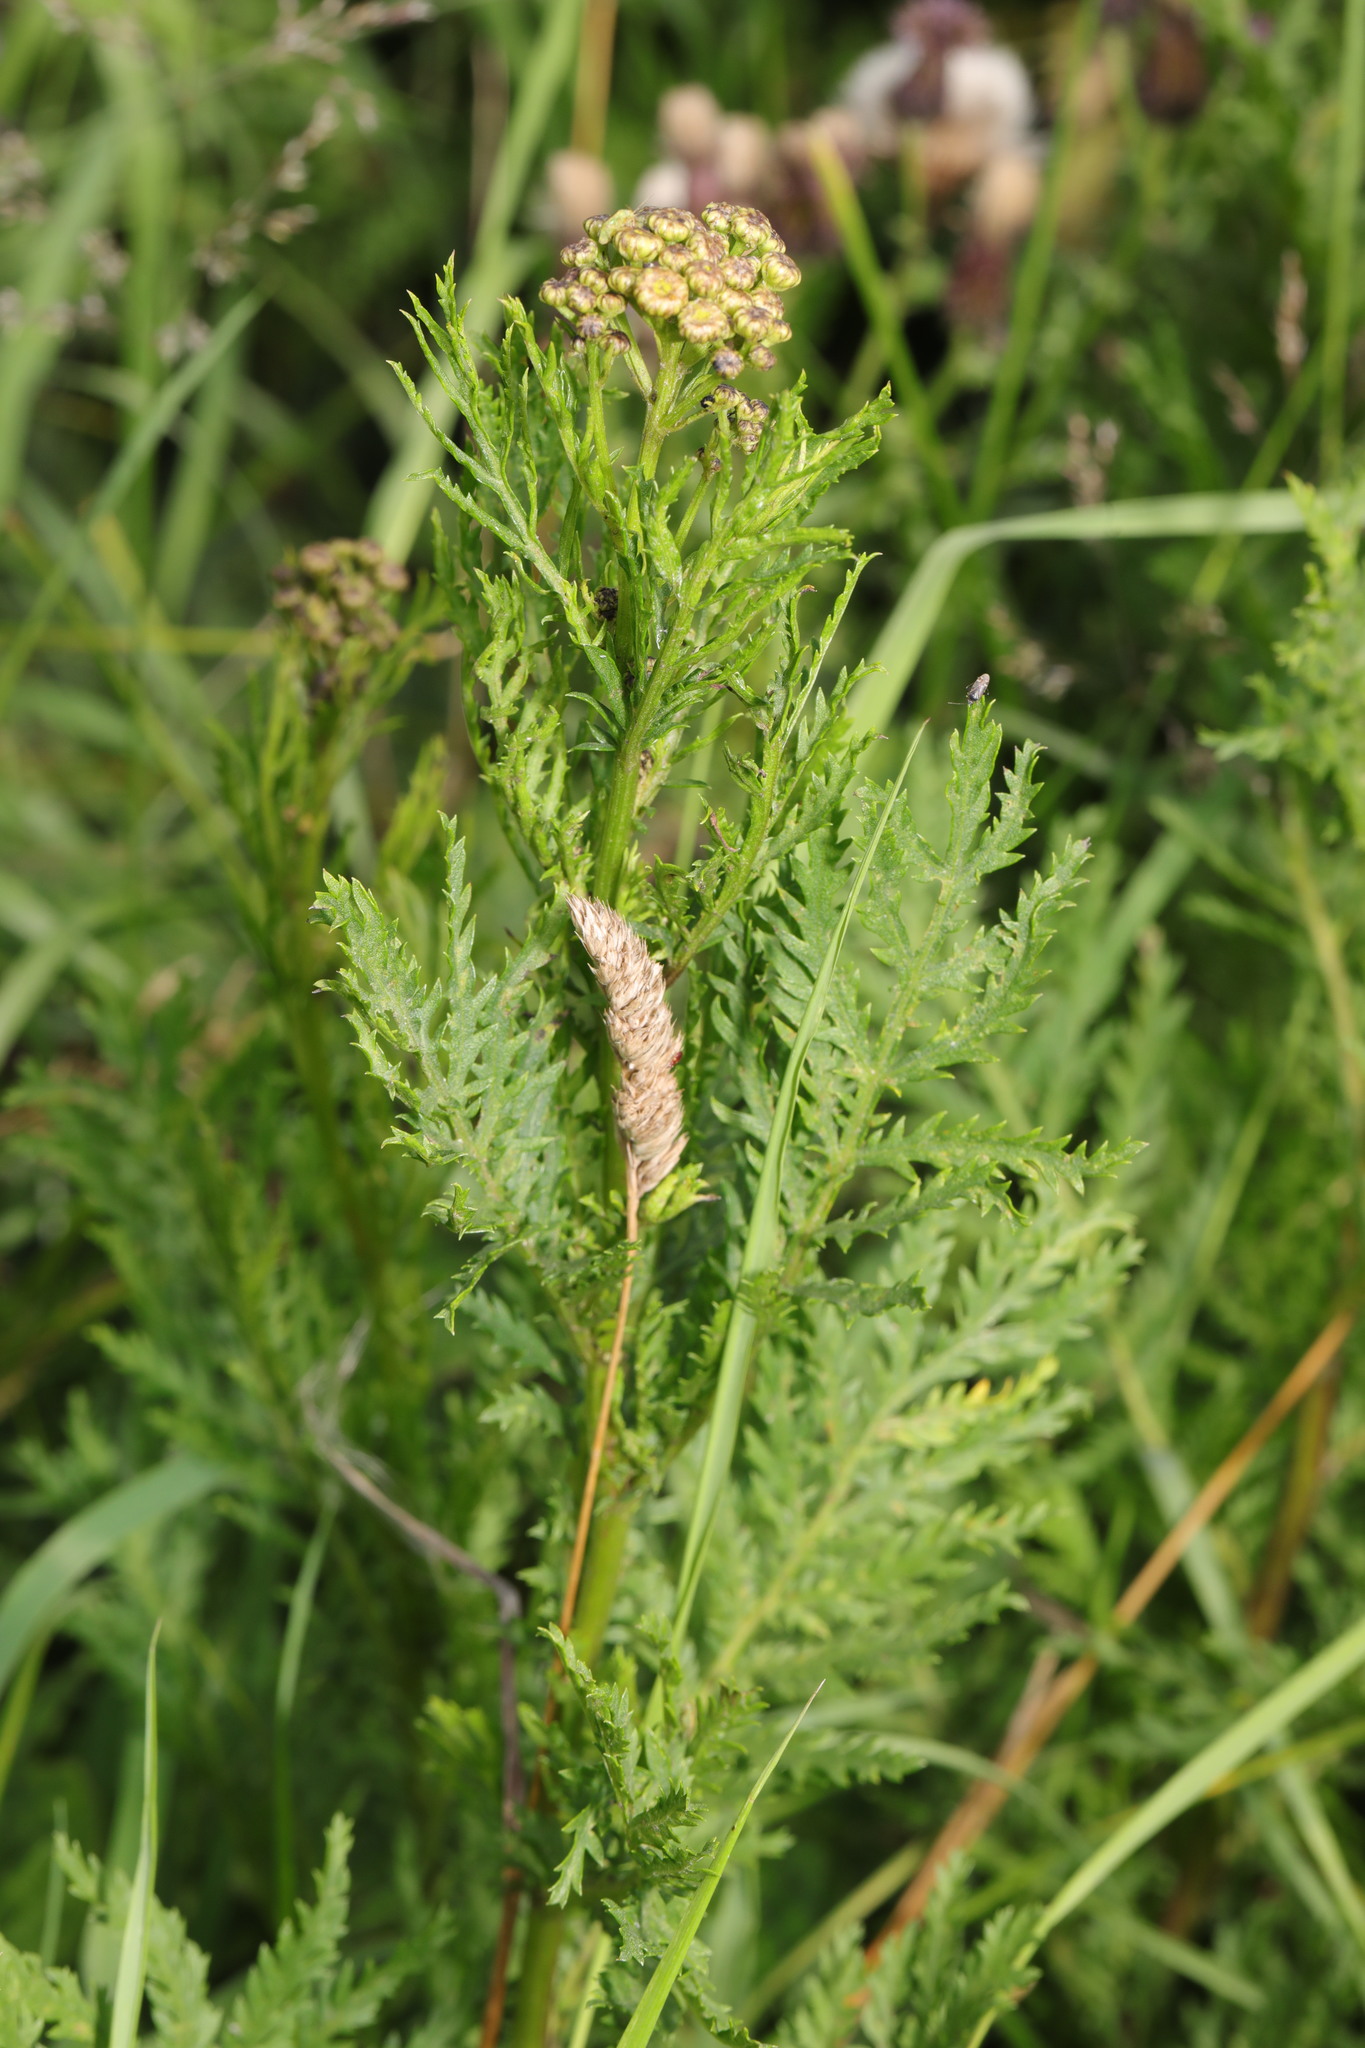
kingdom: Plantae
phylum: Tracheophyta
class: Magnoliopsida
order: Asterales
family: Asteraceae
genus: Tanacetum
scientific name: Tanacetum vulgare
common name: Common tansy
